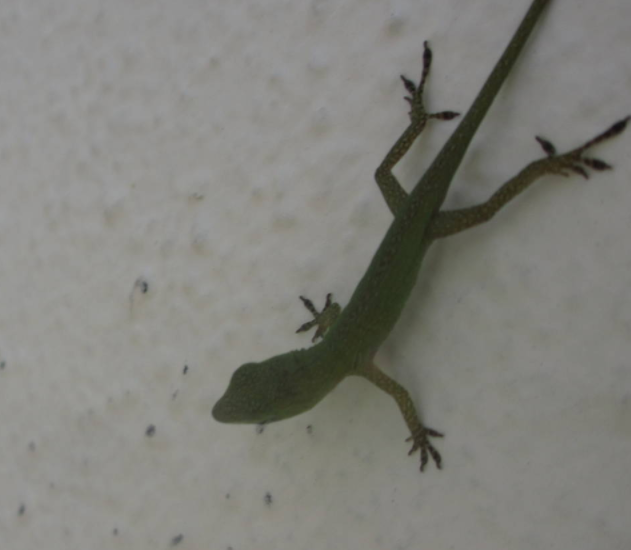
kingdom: Animalia
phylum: Chordata
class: Squamata
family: Dactyloidae
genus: Anolis
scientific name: Anolis smaragdinus
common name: Bahamian green anole
